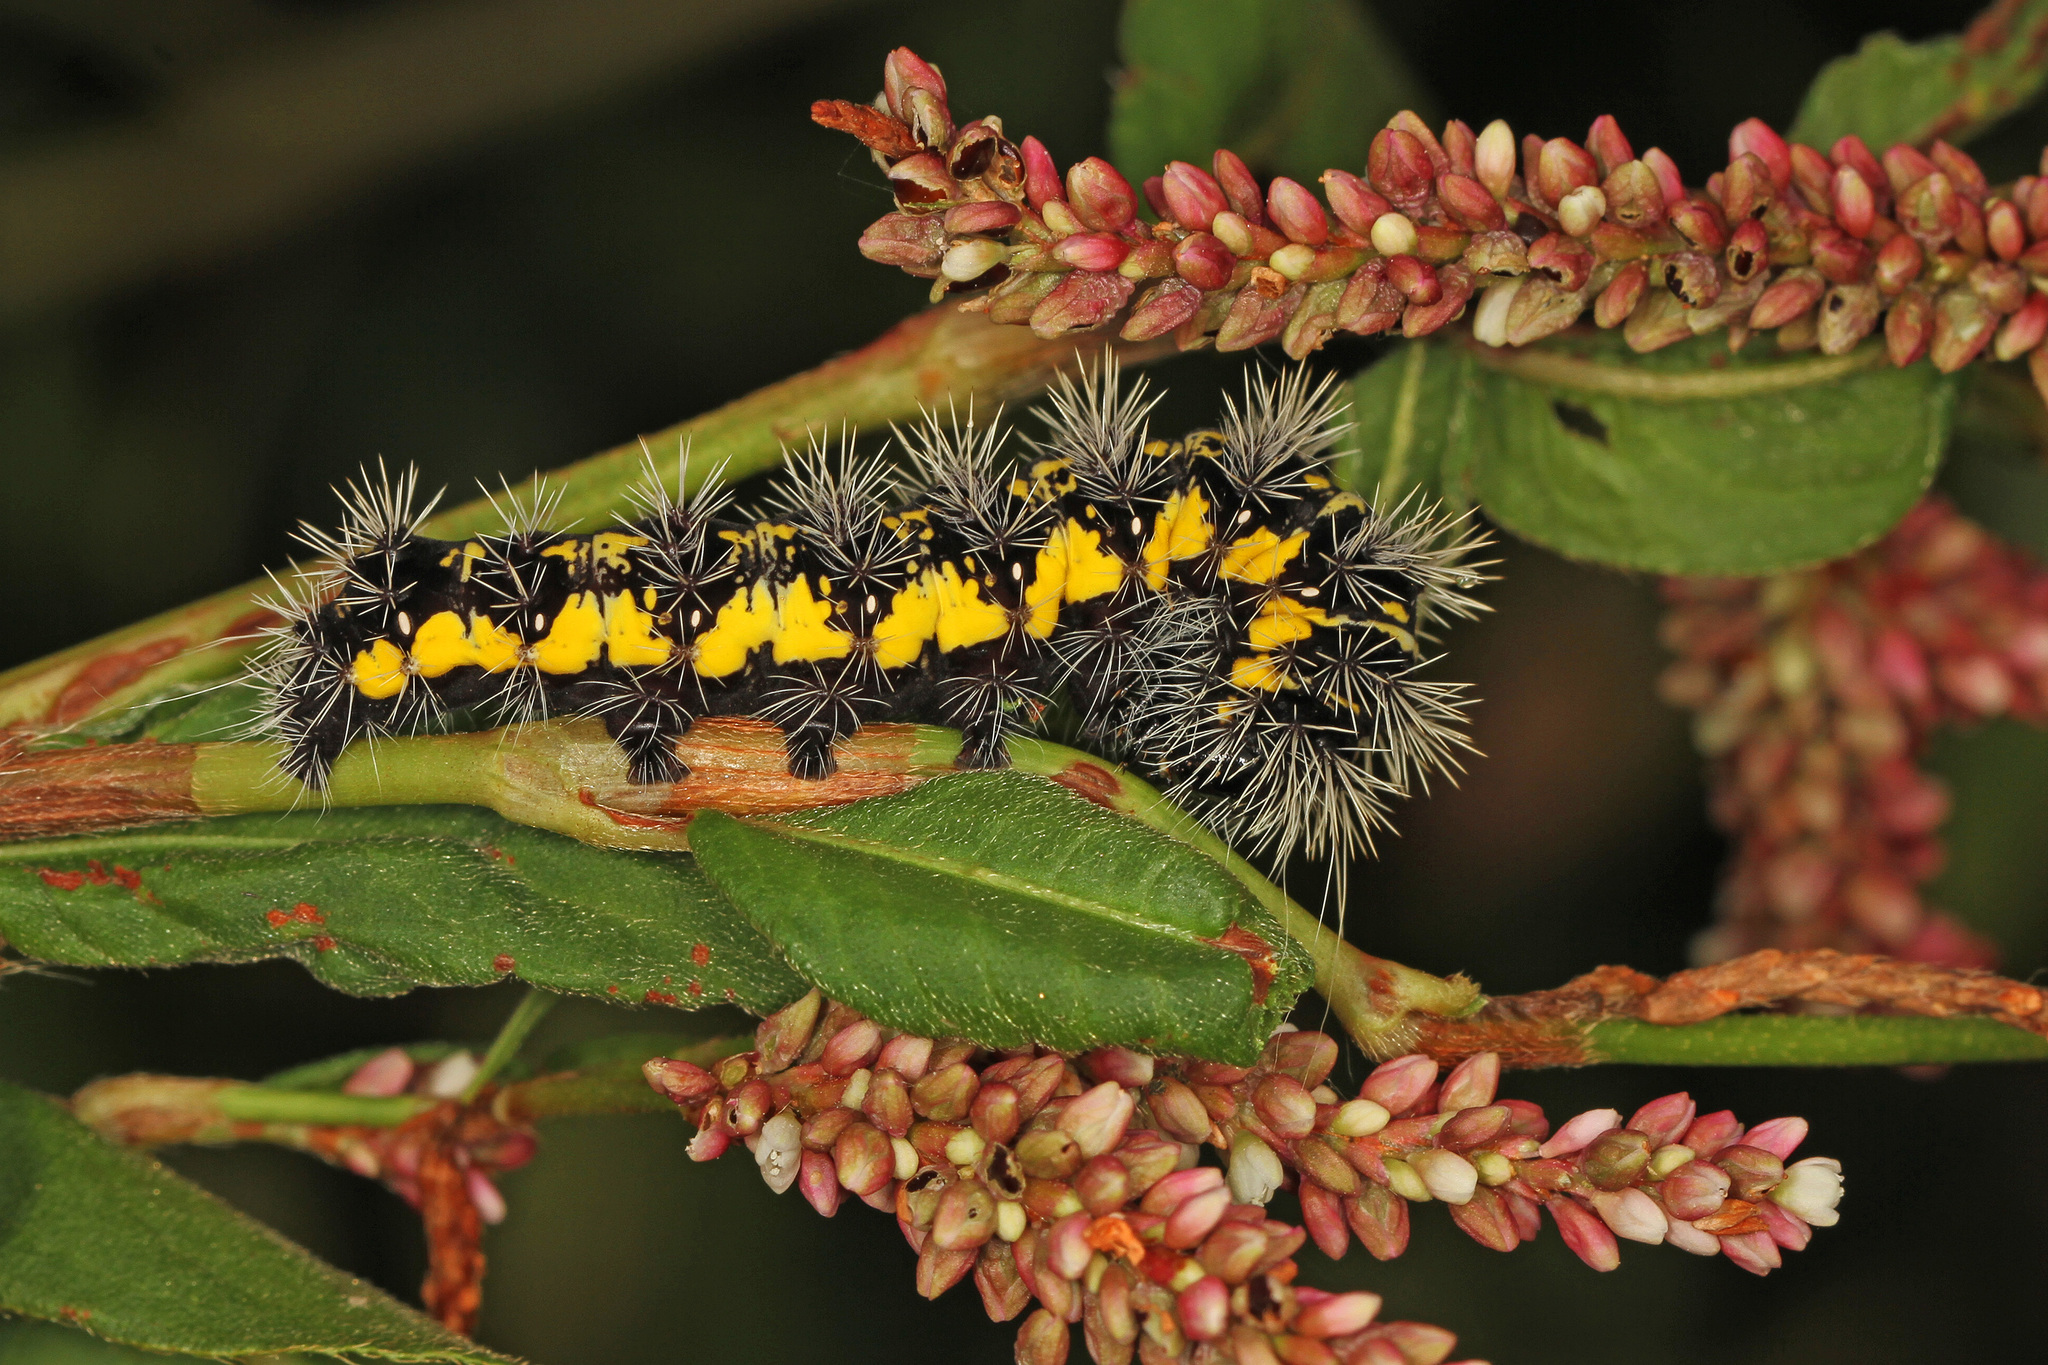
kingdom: Animalia
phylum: Arthropoda
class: Insecta
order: Lepidoptera
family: Noctuidae
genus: Acronicta
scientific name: Acronicta oblinita
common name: Smeared dagger
